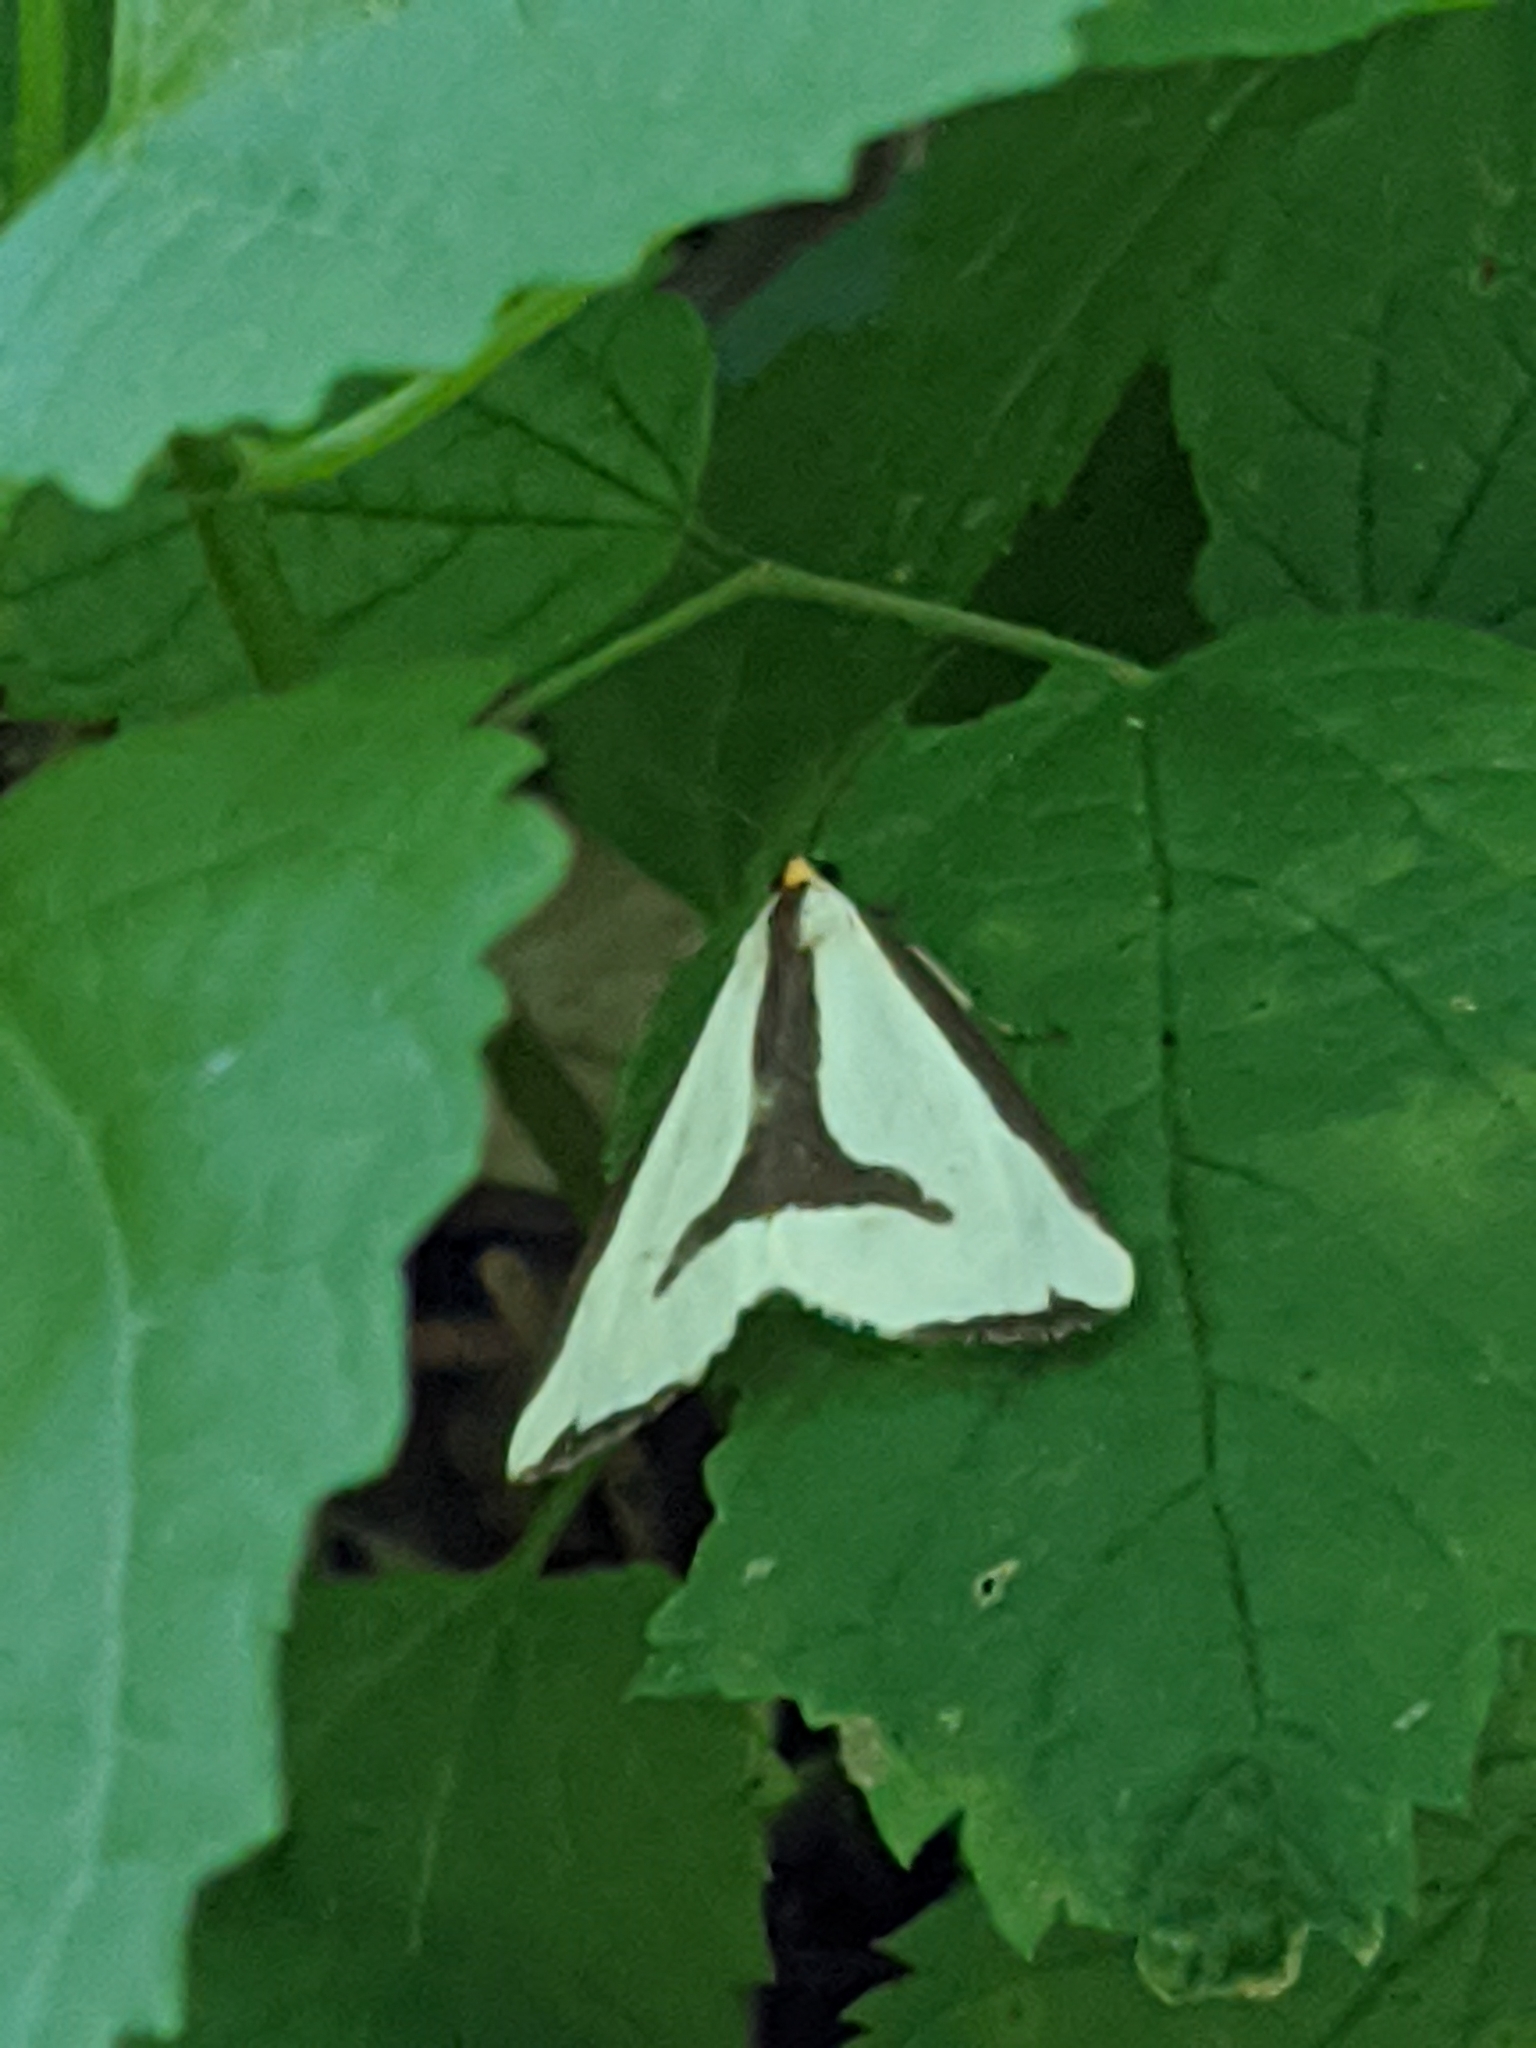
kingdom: Animalia
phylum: Arthropoda
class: Insecta
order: Lepidoptera
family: Erebidae
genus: Haploa
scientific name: Haploa lecontei
